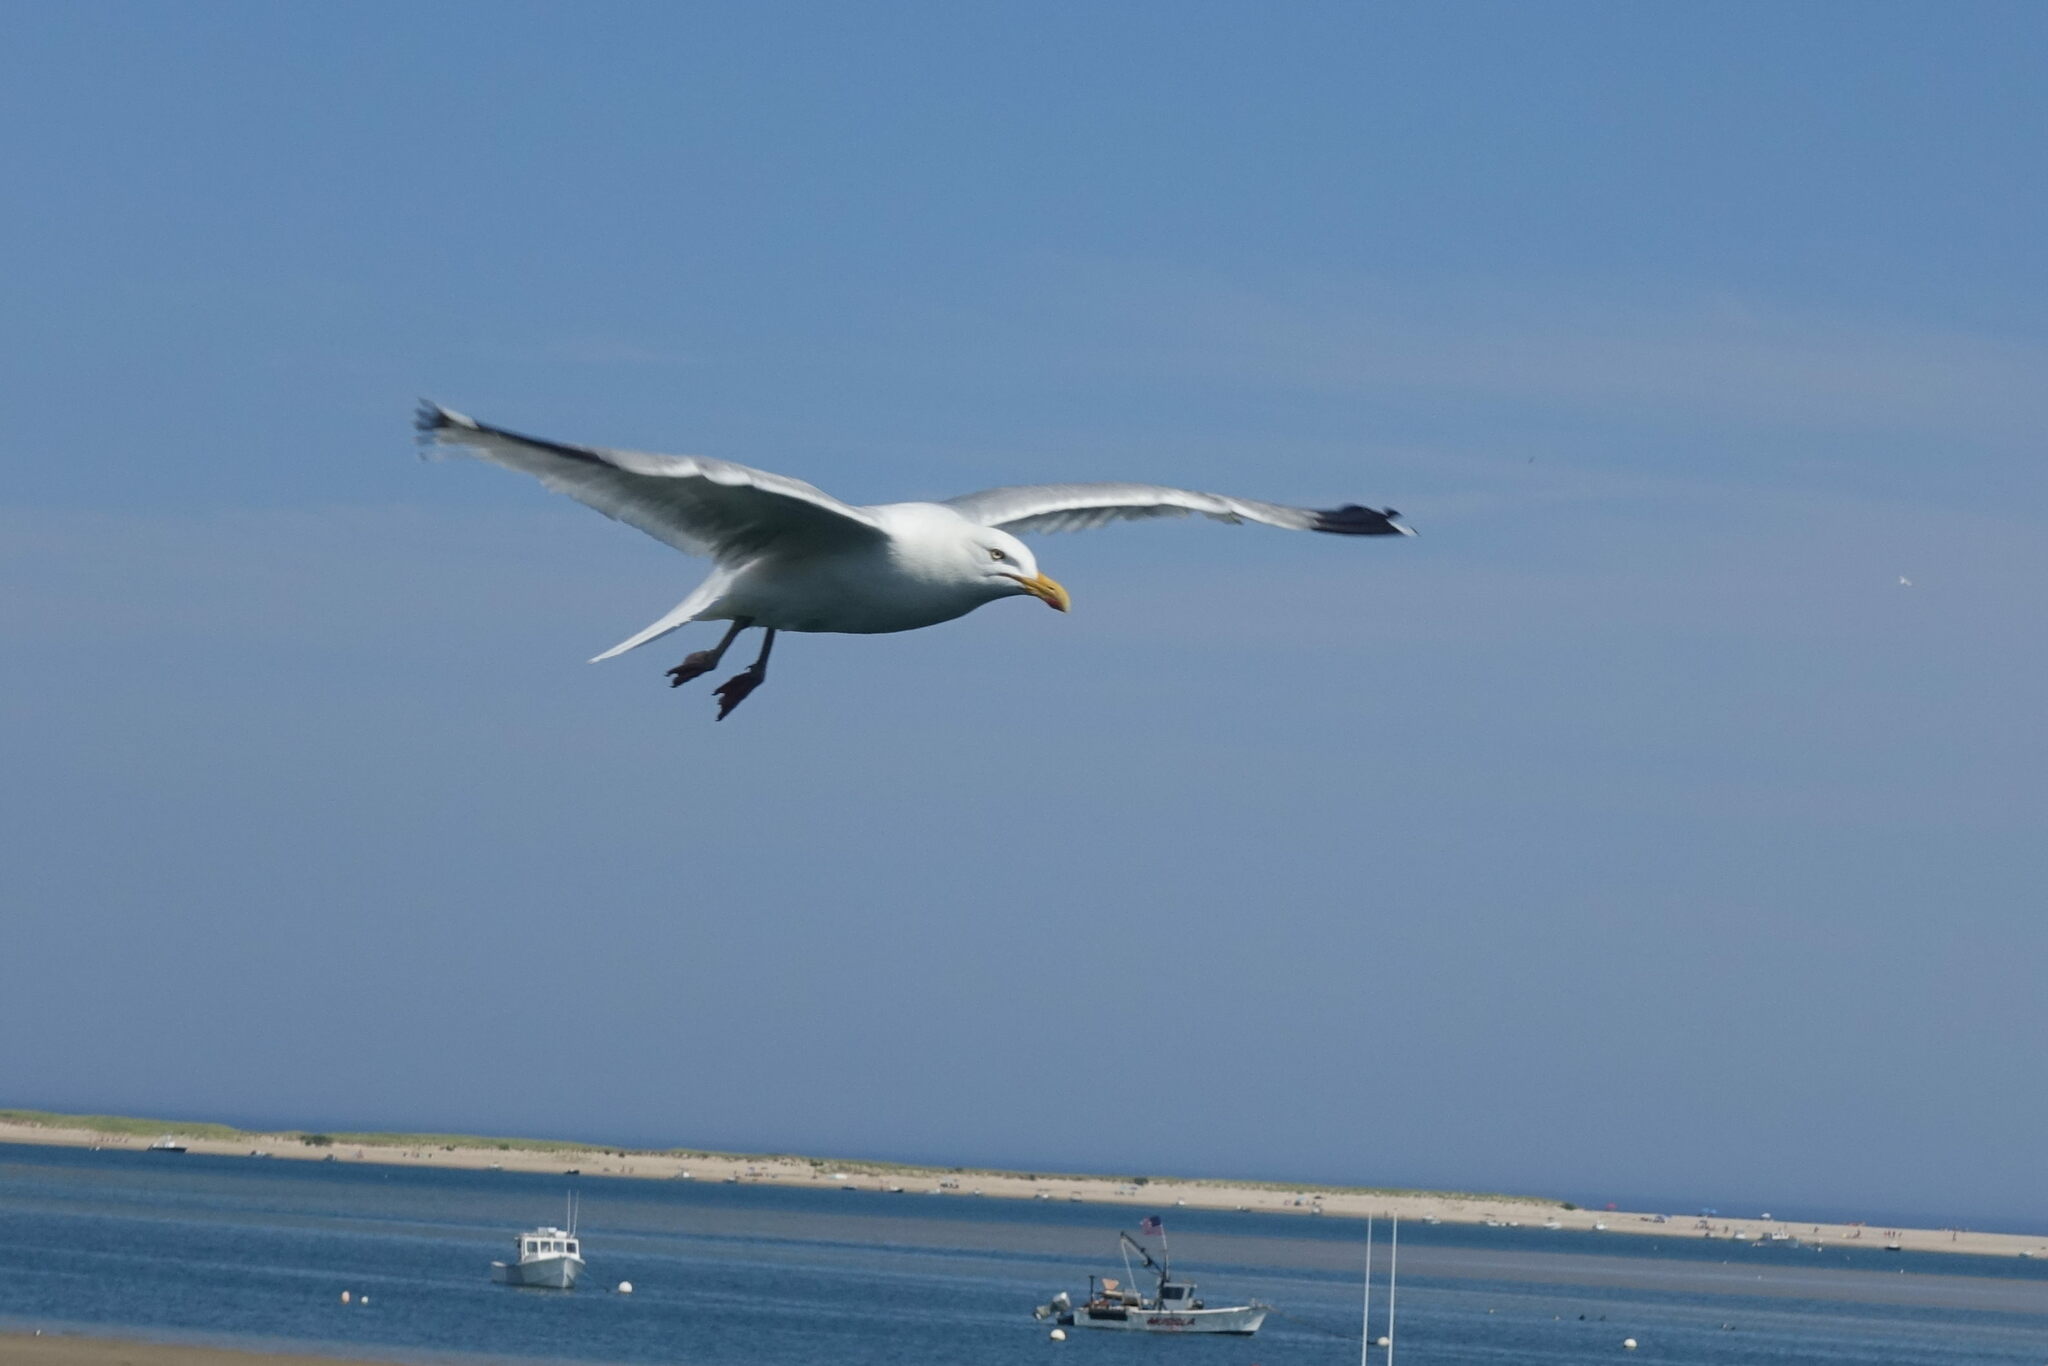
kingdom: Animalia
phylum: Chordata
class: Aves
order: Charadriiformes
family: Laridae
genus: Larus
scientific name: Larus argentatus
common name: Herring gull
